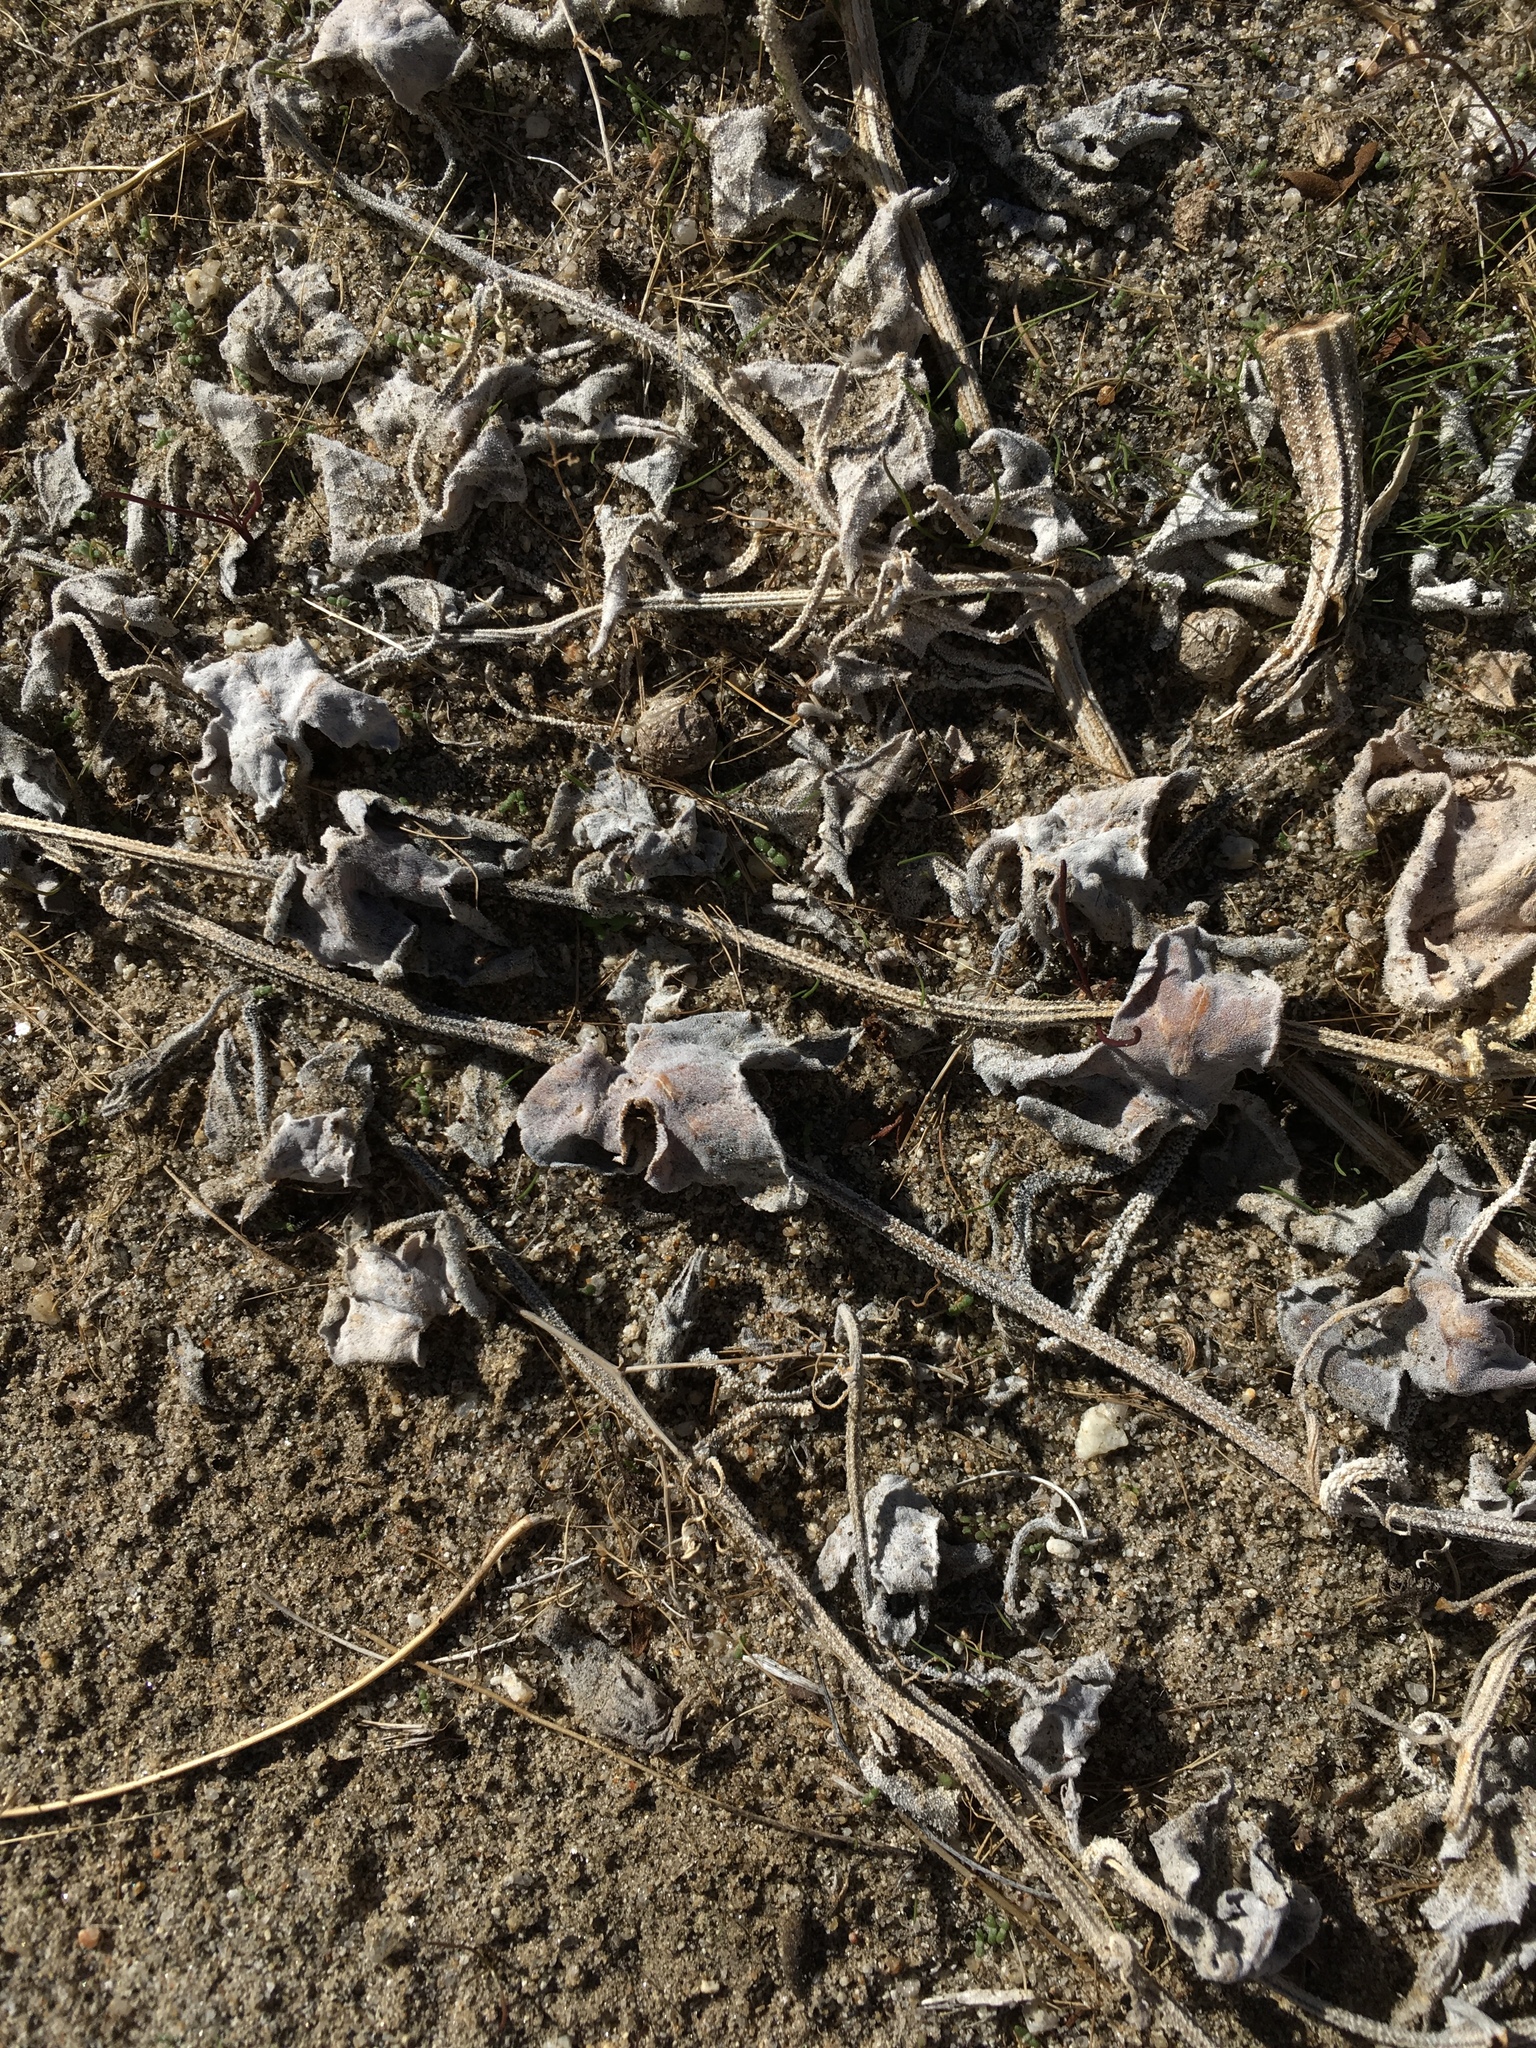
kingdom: Plantae
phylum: Tracheophyta
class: Magnoliopsida
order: Cucurbitales
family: Cucurbitaceae
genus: Cucurbita
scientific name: Cucurbita palmata
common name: Coyote-melon
